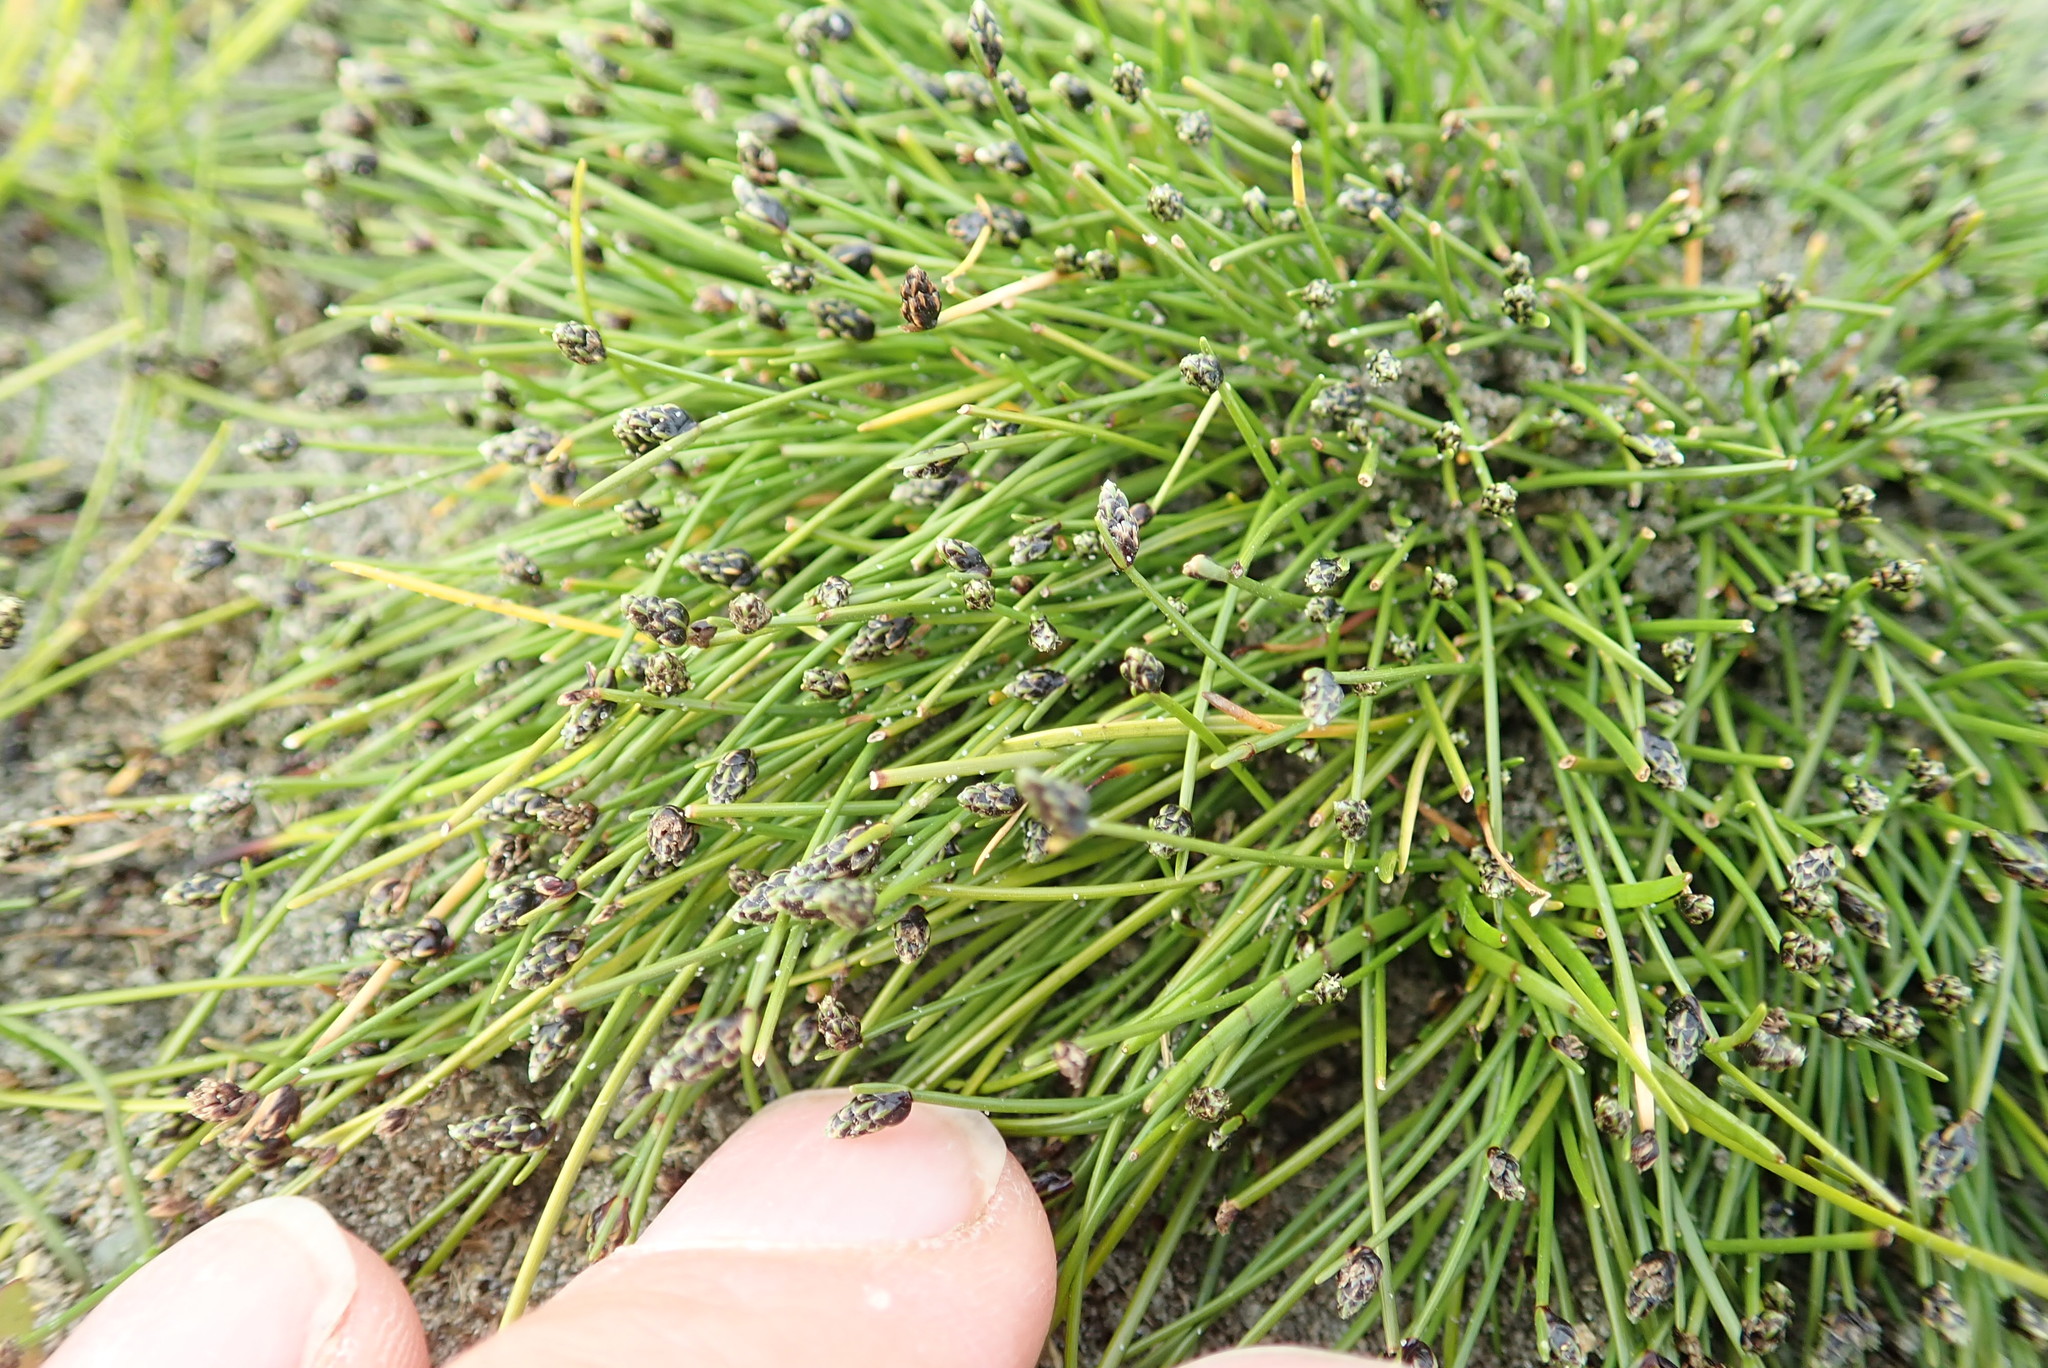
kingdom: Plantae
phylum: Tracheophyta
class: Liliopsida
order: Poales
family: Cyperaceae
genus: Isolepis
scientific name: Isolepis cernua
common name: Slender club-rush
